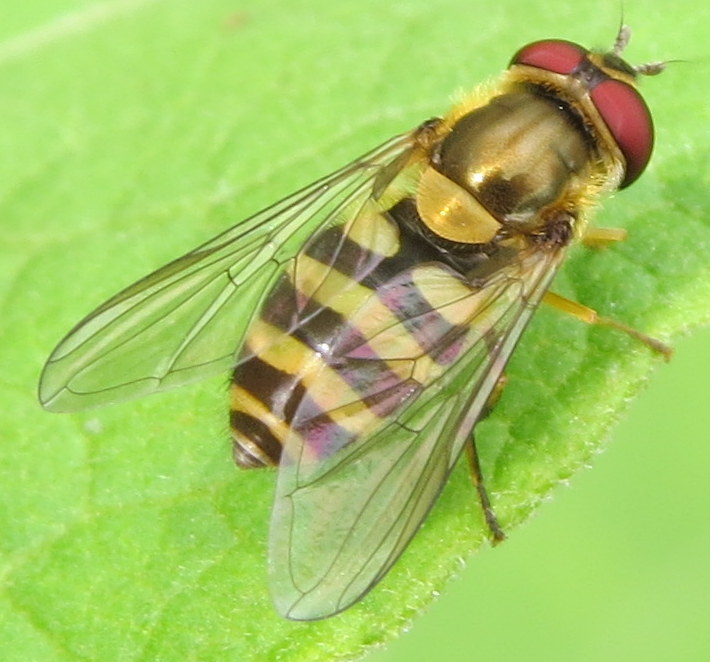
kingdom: Animalia
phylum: Arthropoda
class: Insecta
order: Diptera
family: Syrphidae
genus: Syrphus
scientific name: Syrphus
